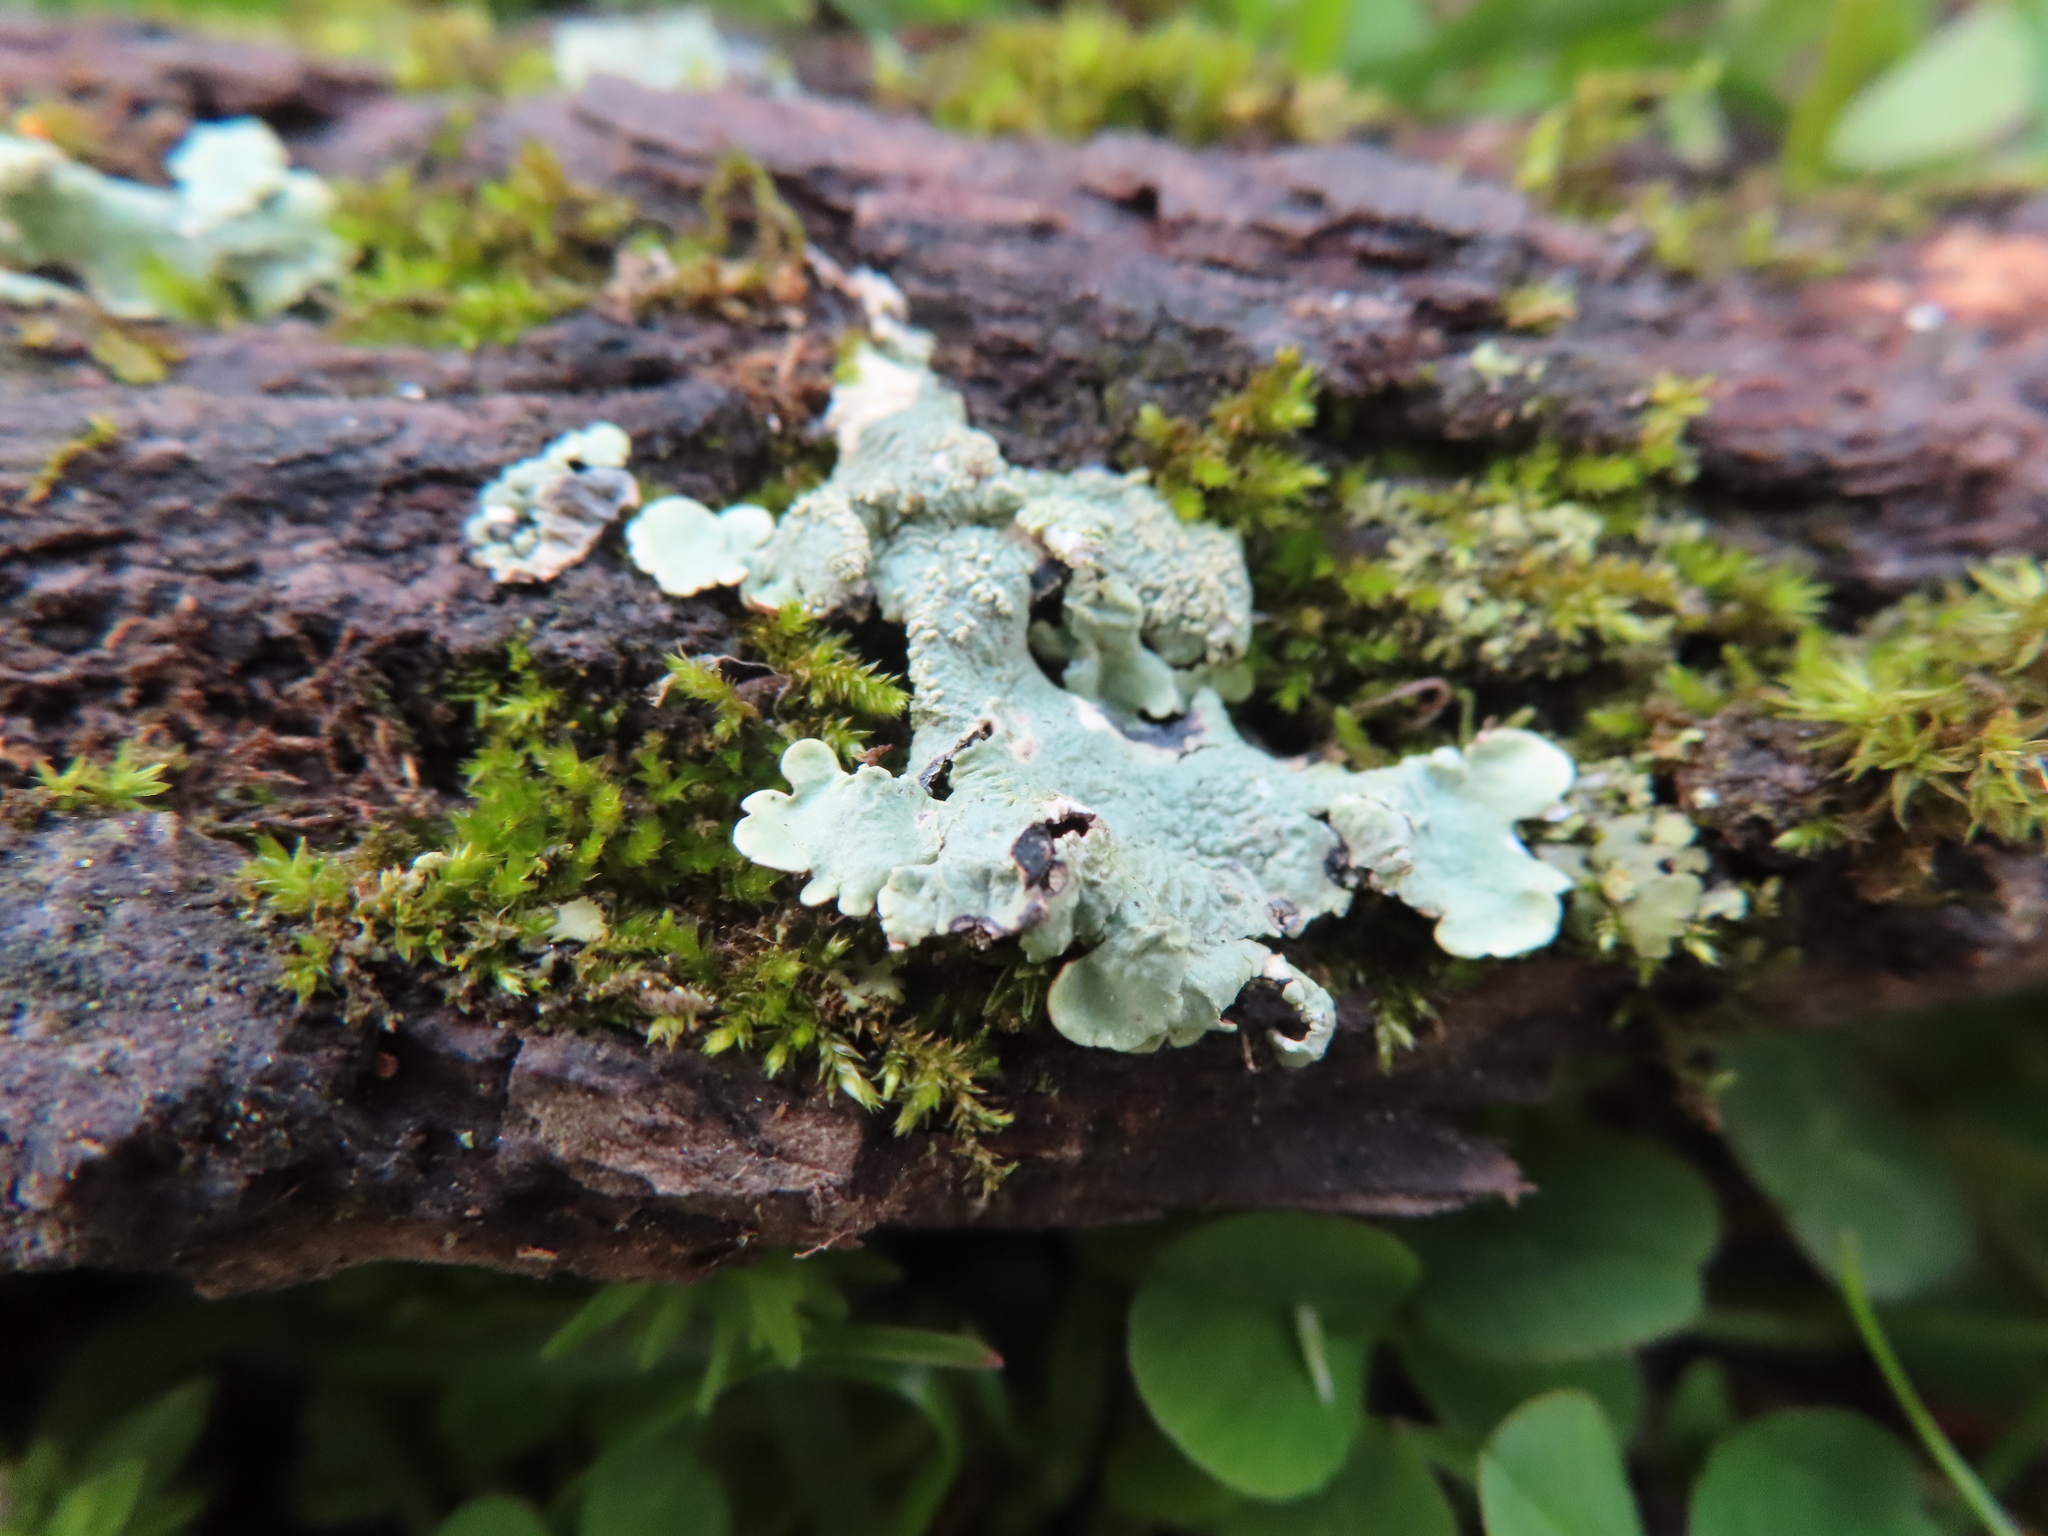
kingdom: Fungi
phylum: Ascomycota
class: Lecanoromycetes
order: Lecanorales
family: Parmeliaceae
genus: Flavoparmelia
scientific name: Flavoparmelia caperata
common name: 40-mile per hour lichen
